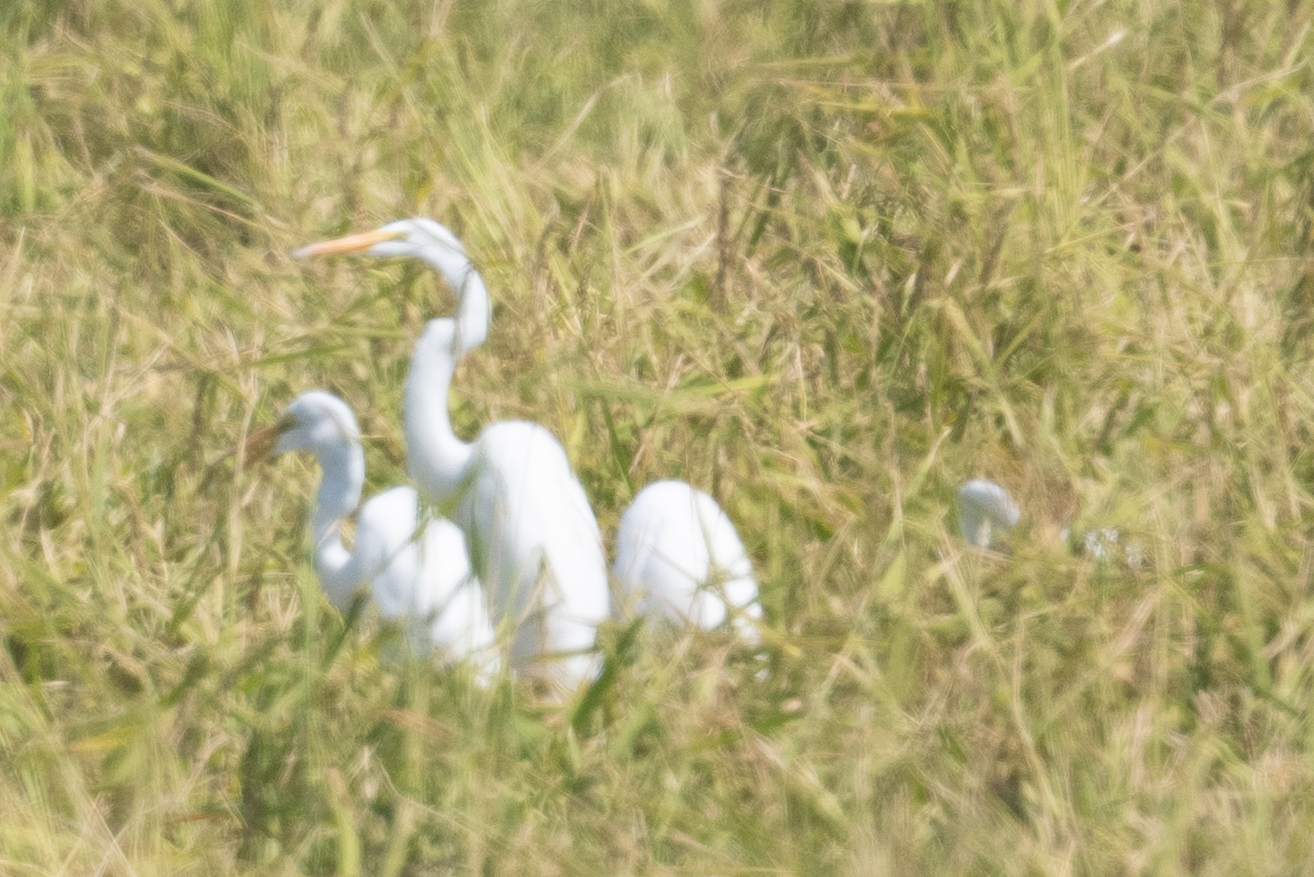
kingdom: Animalia
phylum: Chordata
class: Aves
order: Pelecaniformes
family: Ardeidae
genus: Ardea
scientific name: Ardea alba
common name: Great egret
